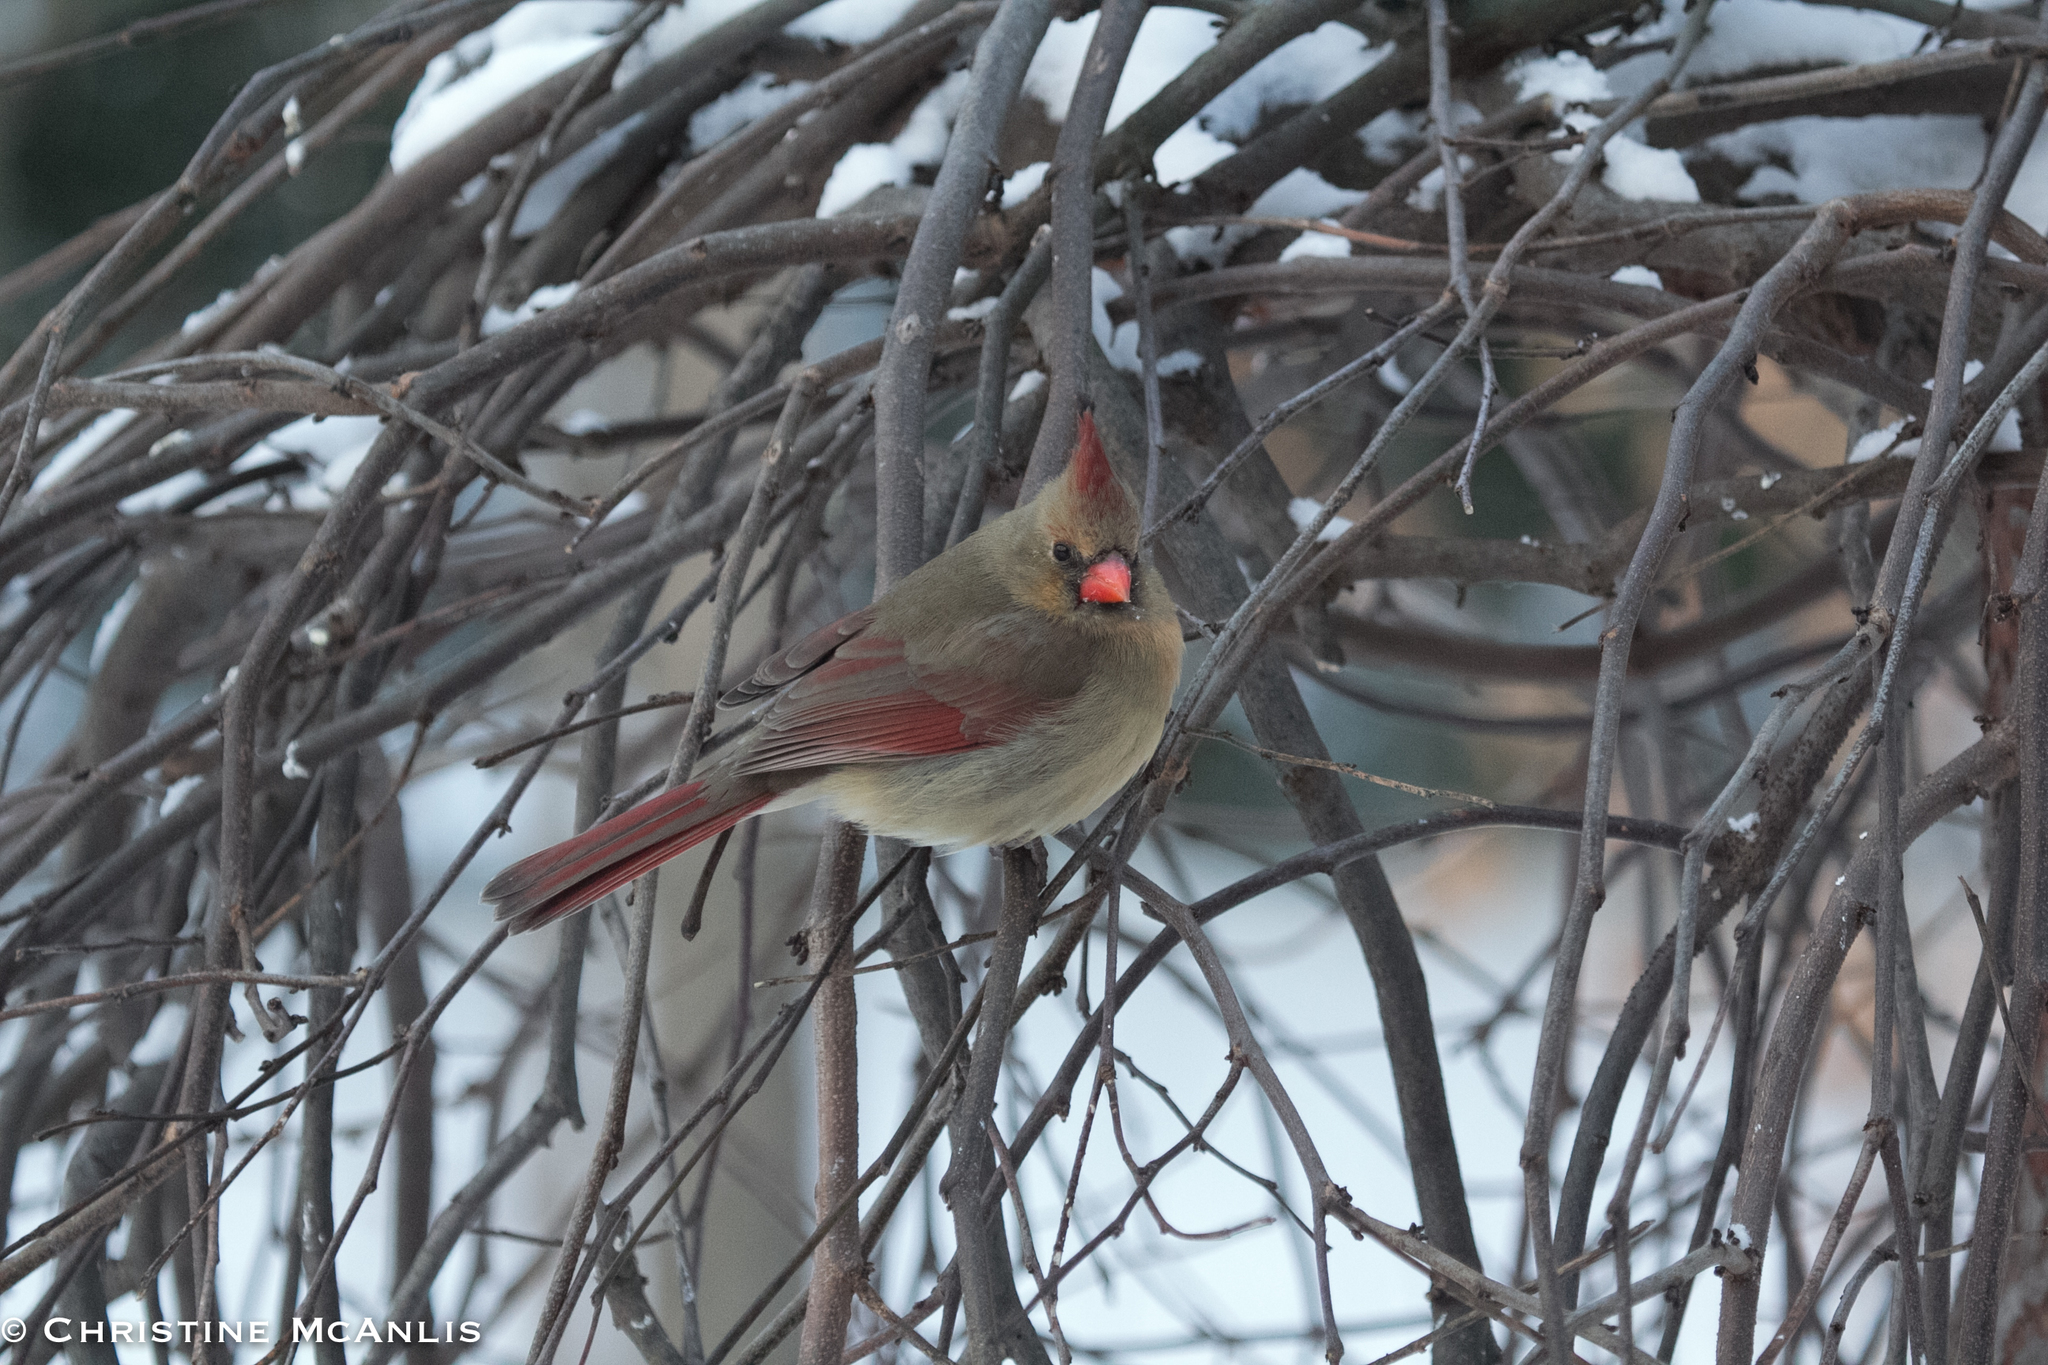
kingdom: Animalia
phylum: Chordata
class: Aves
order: Passeriformes
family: Cardinalidae
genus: Cardinalis
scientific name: Cardinalis cardinalis
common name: Northern cardinal
